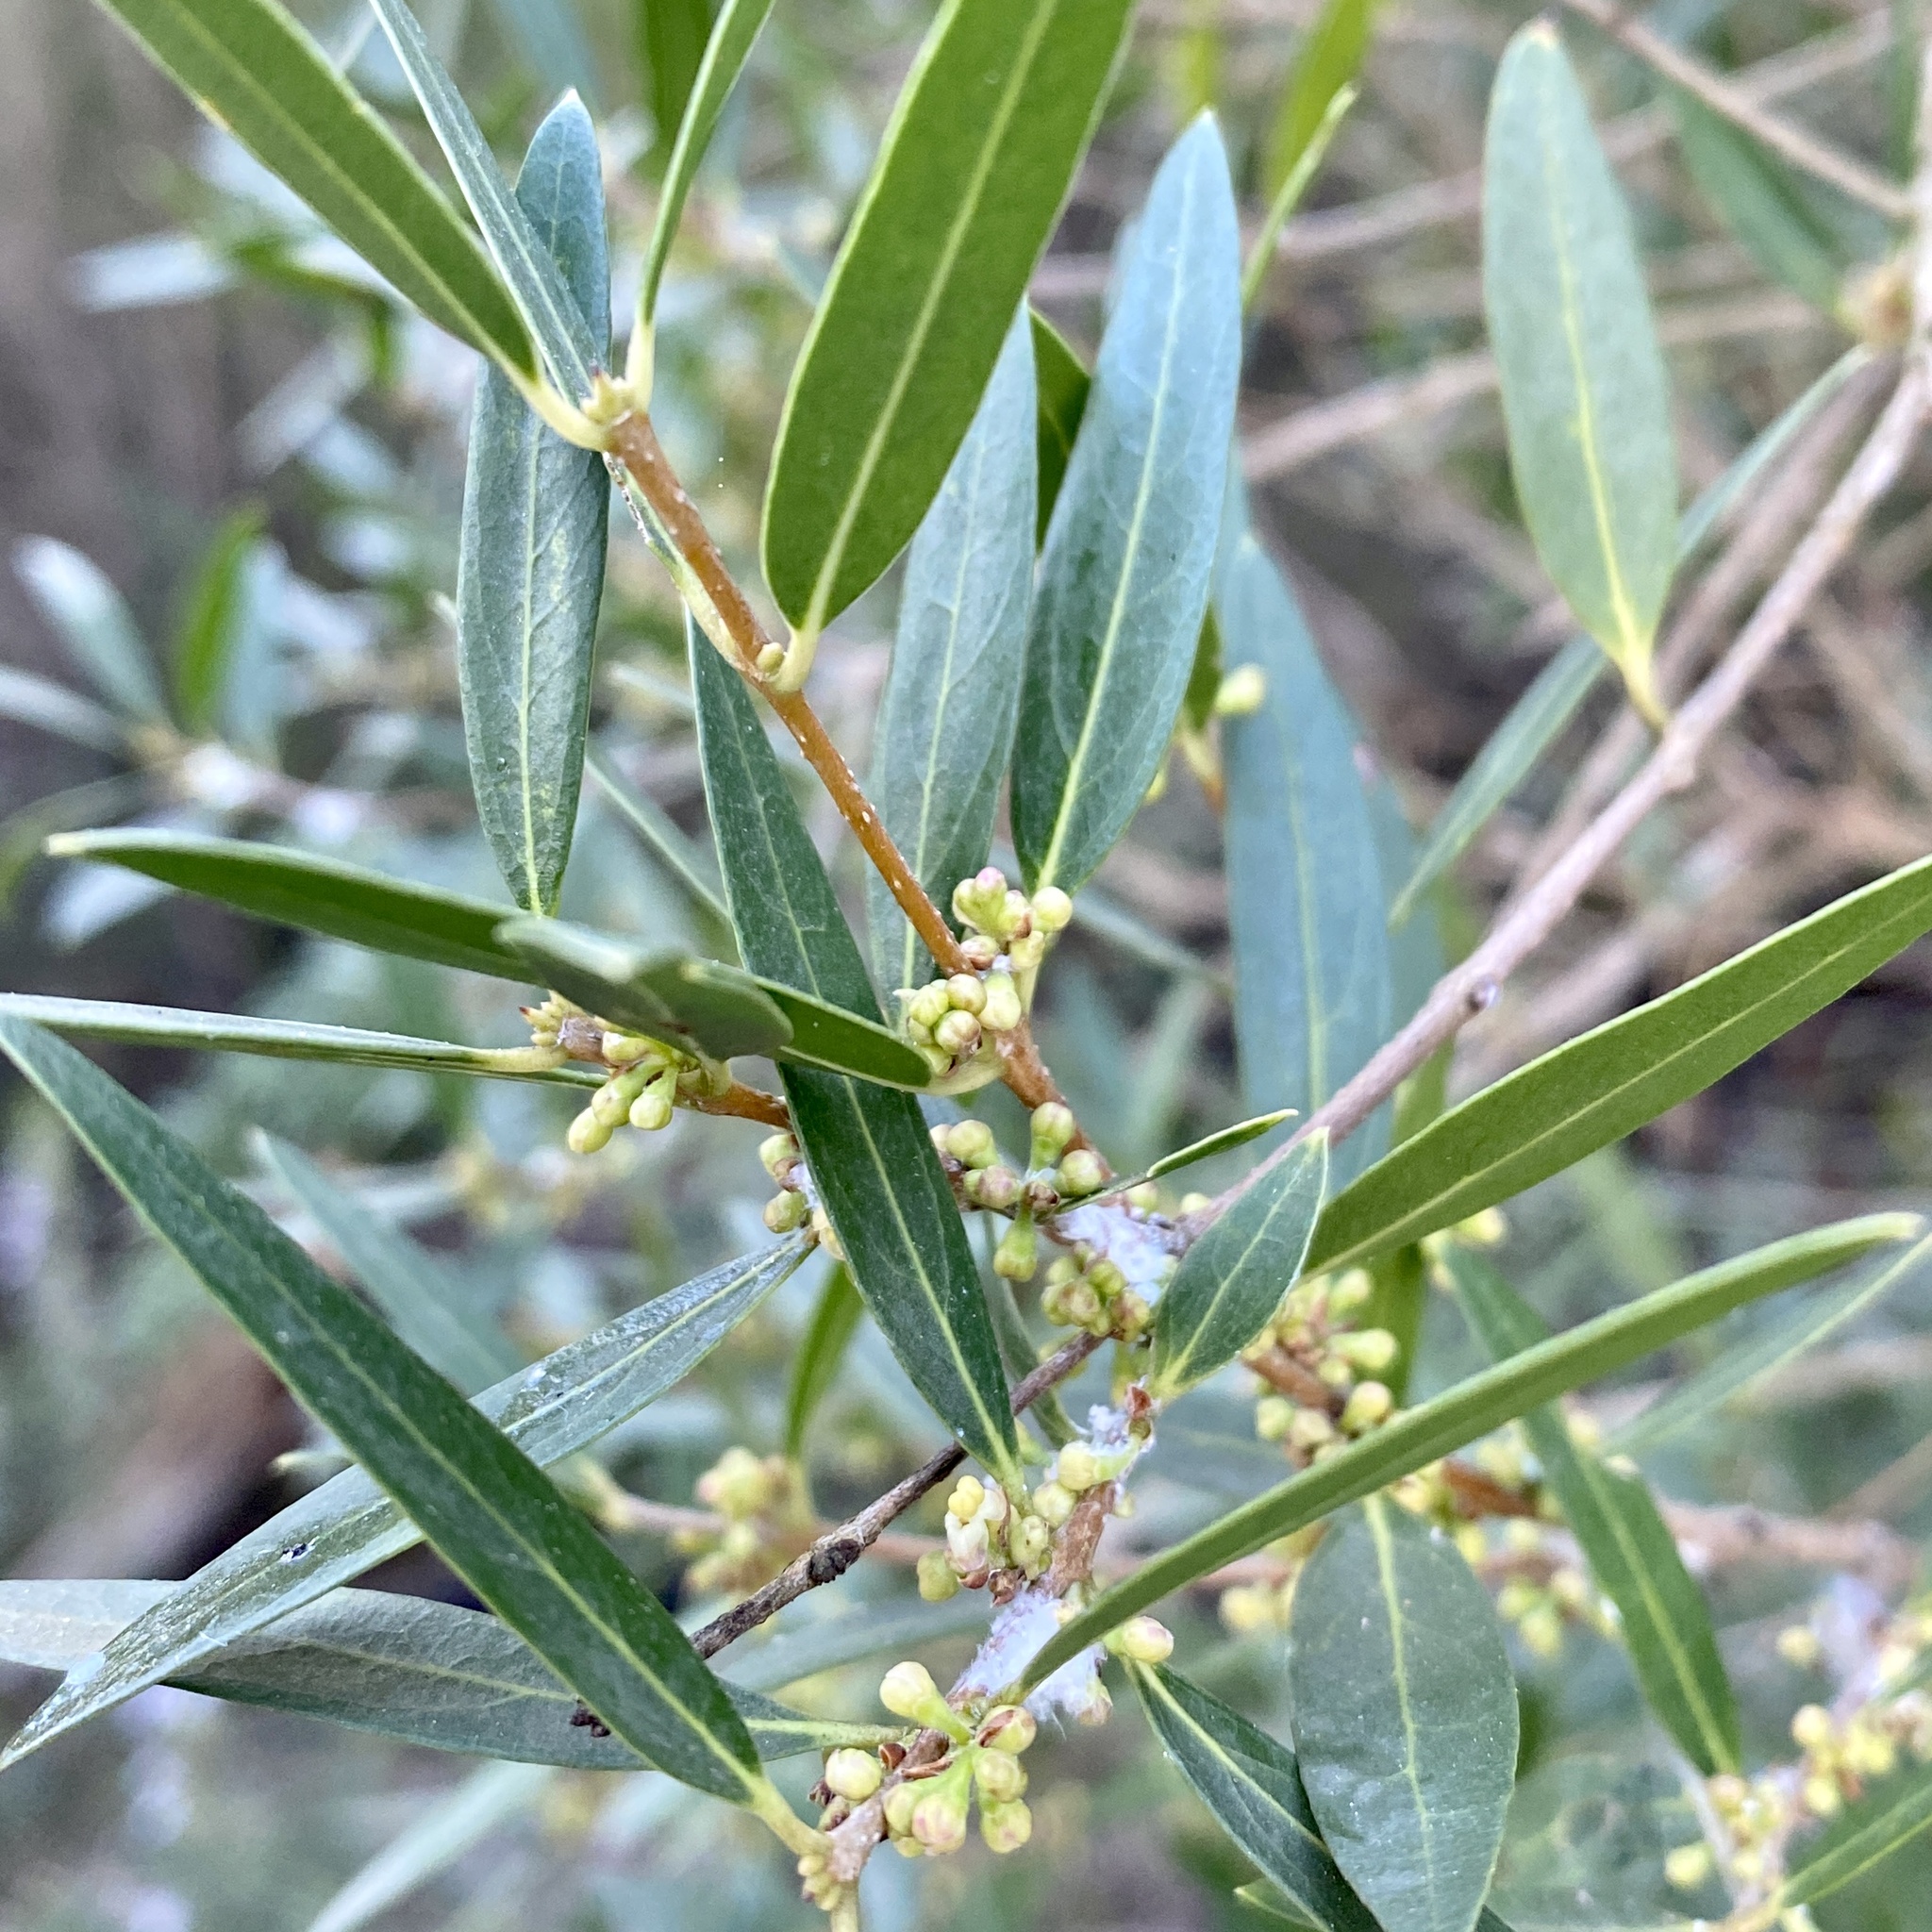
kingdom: Plantae
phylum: Tracheophyta
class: Magnoliopsida
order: Lamiales
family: Oleaceae
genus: Phillyrea
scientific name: Phillyrea angustifolia
